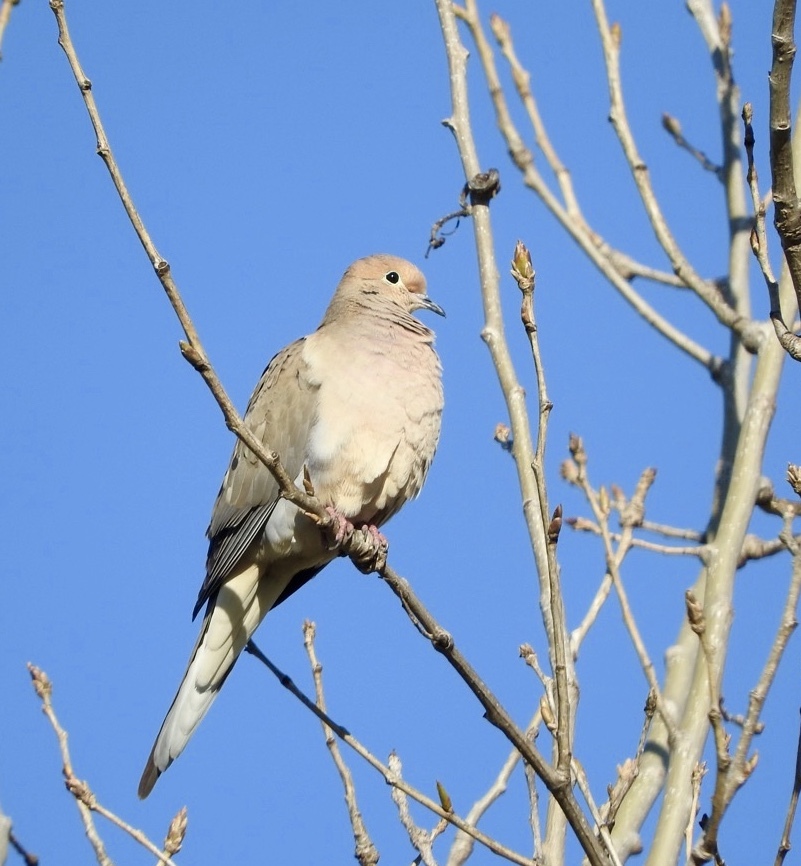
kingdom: Animalia
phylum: Chordata
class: Aves
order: Columbiformes
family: Columbidae
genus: Zenaida
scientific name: Zenaida macroura
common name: Mourning dove
